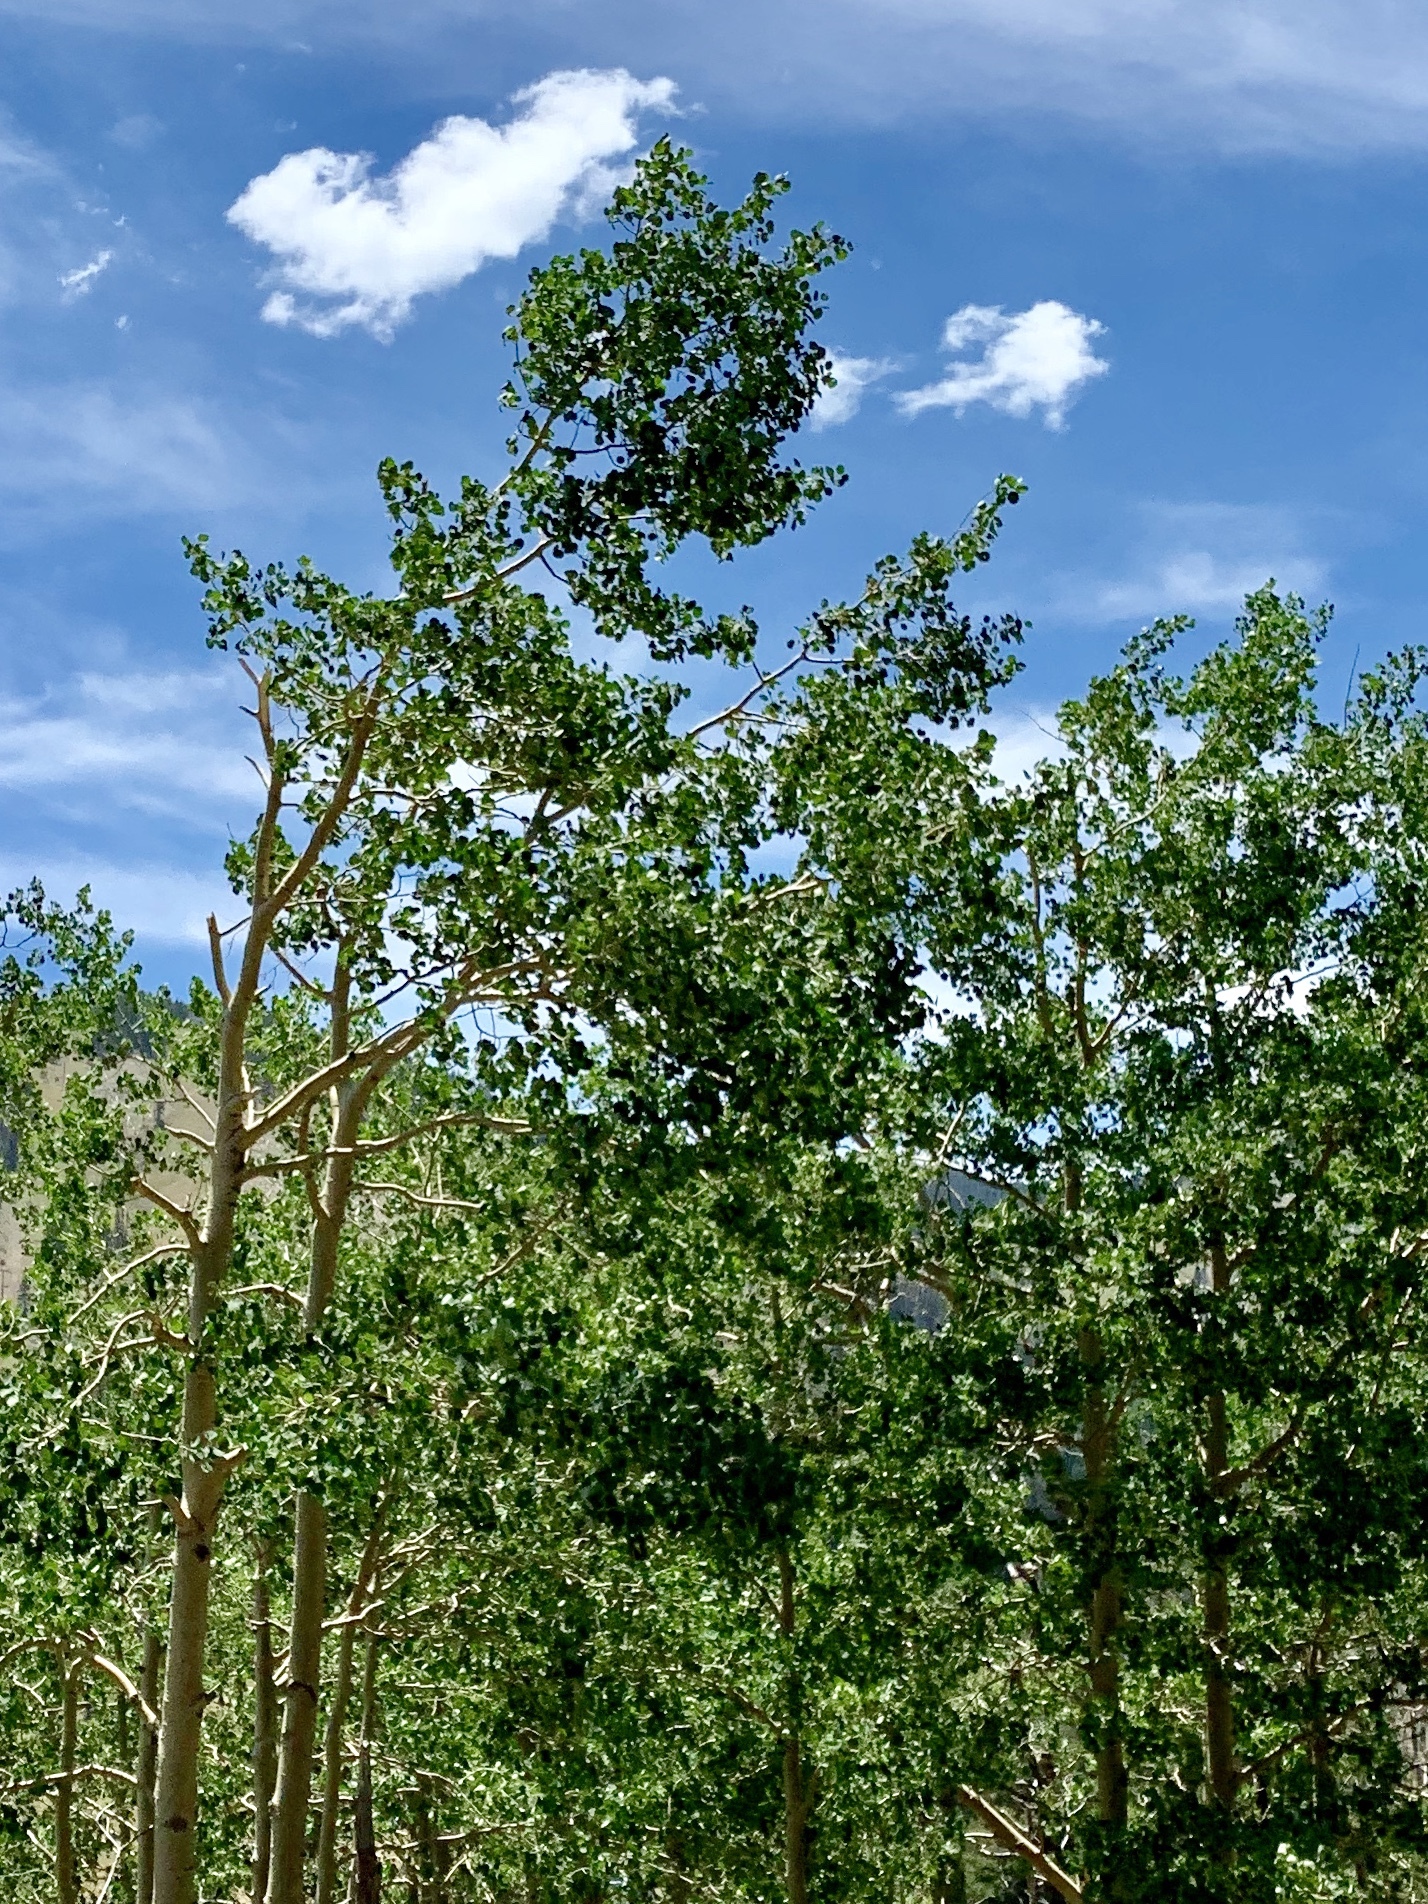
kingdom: Plantae
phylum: Tracheophyta
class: Magnoliopsida
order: Malpighiales
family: Salicaceae
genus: Populus
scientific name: Populus tremuloides
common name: Quaking aspen
